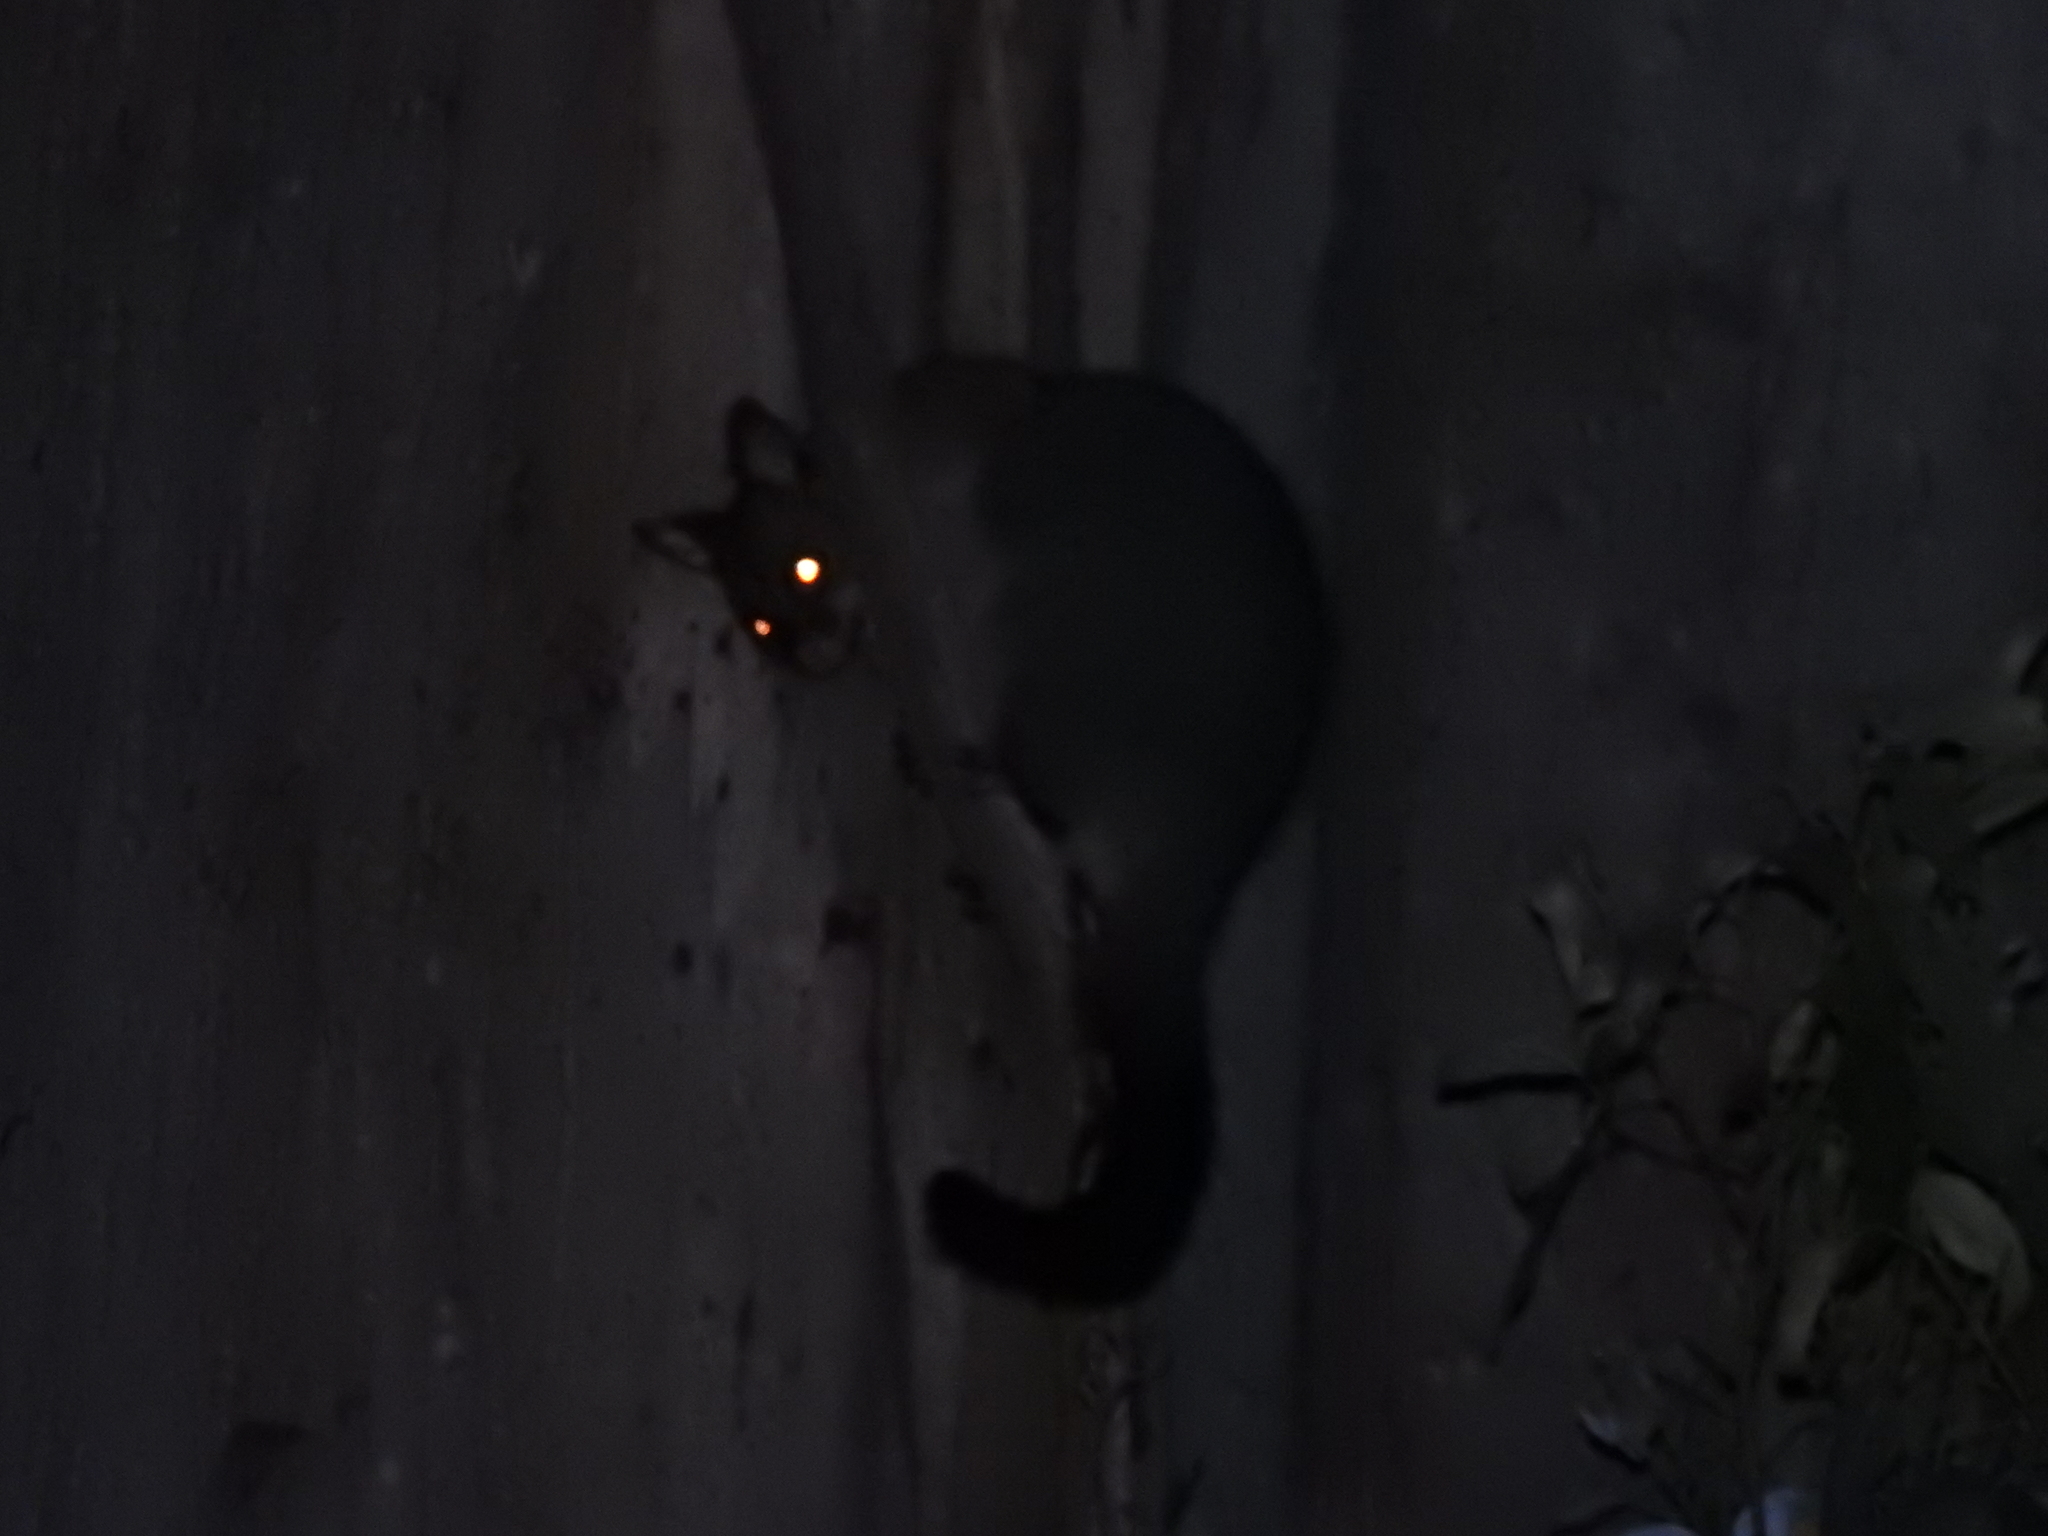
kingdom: Animalia
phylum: Chordata
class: Mammalia
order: Diprotodontia
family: Phalangeridae
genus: Trichosurus
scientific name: Trichosurus vulpecula
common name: Common brushtail
